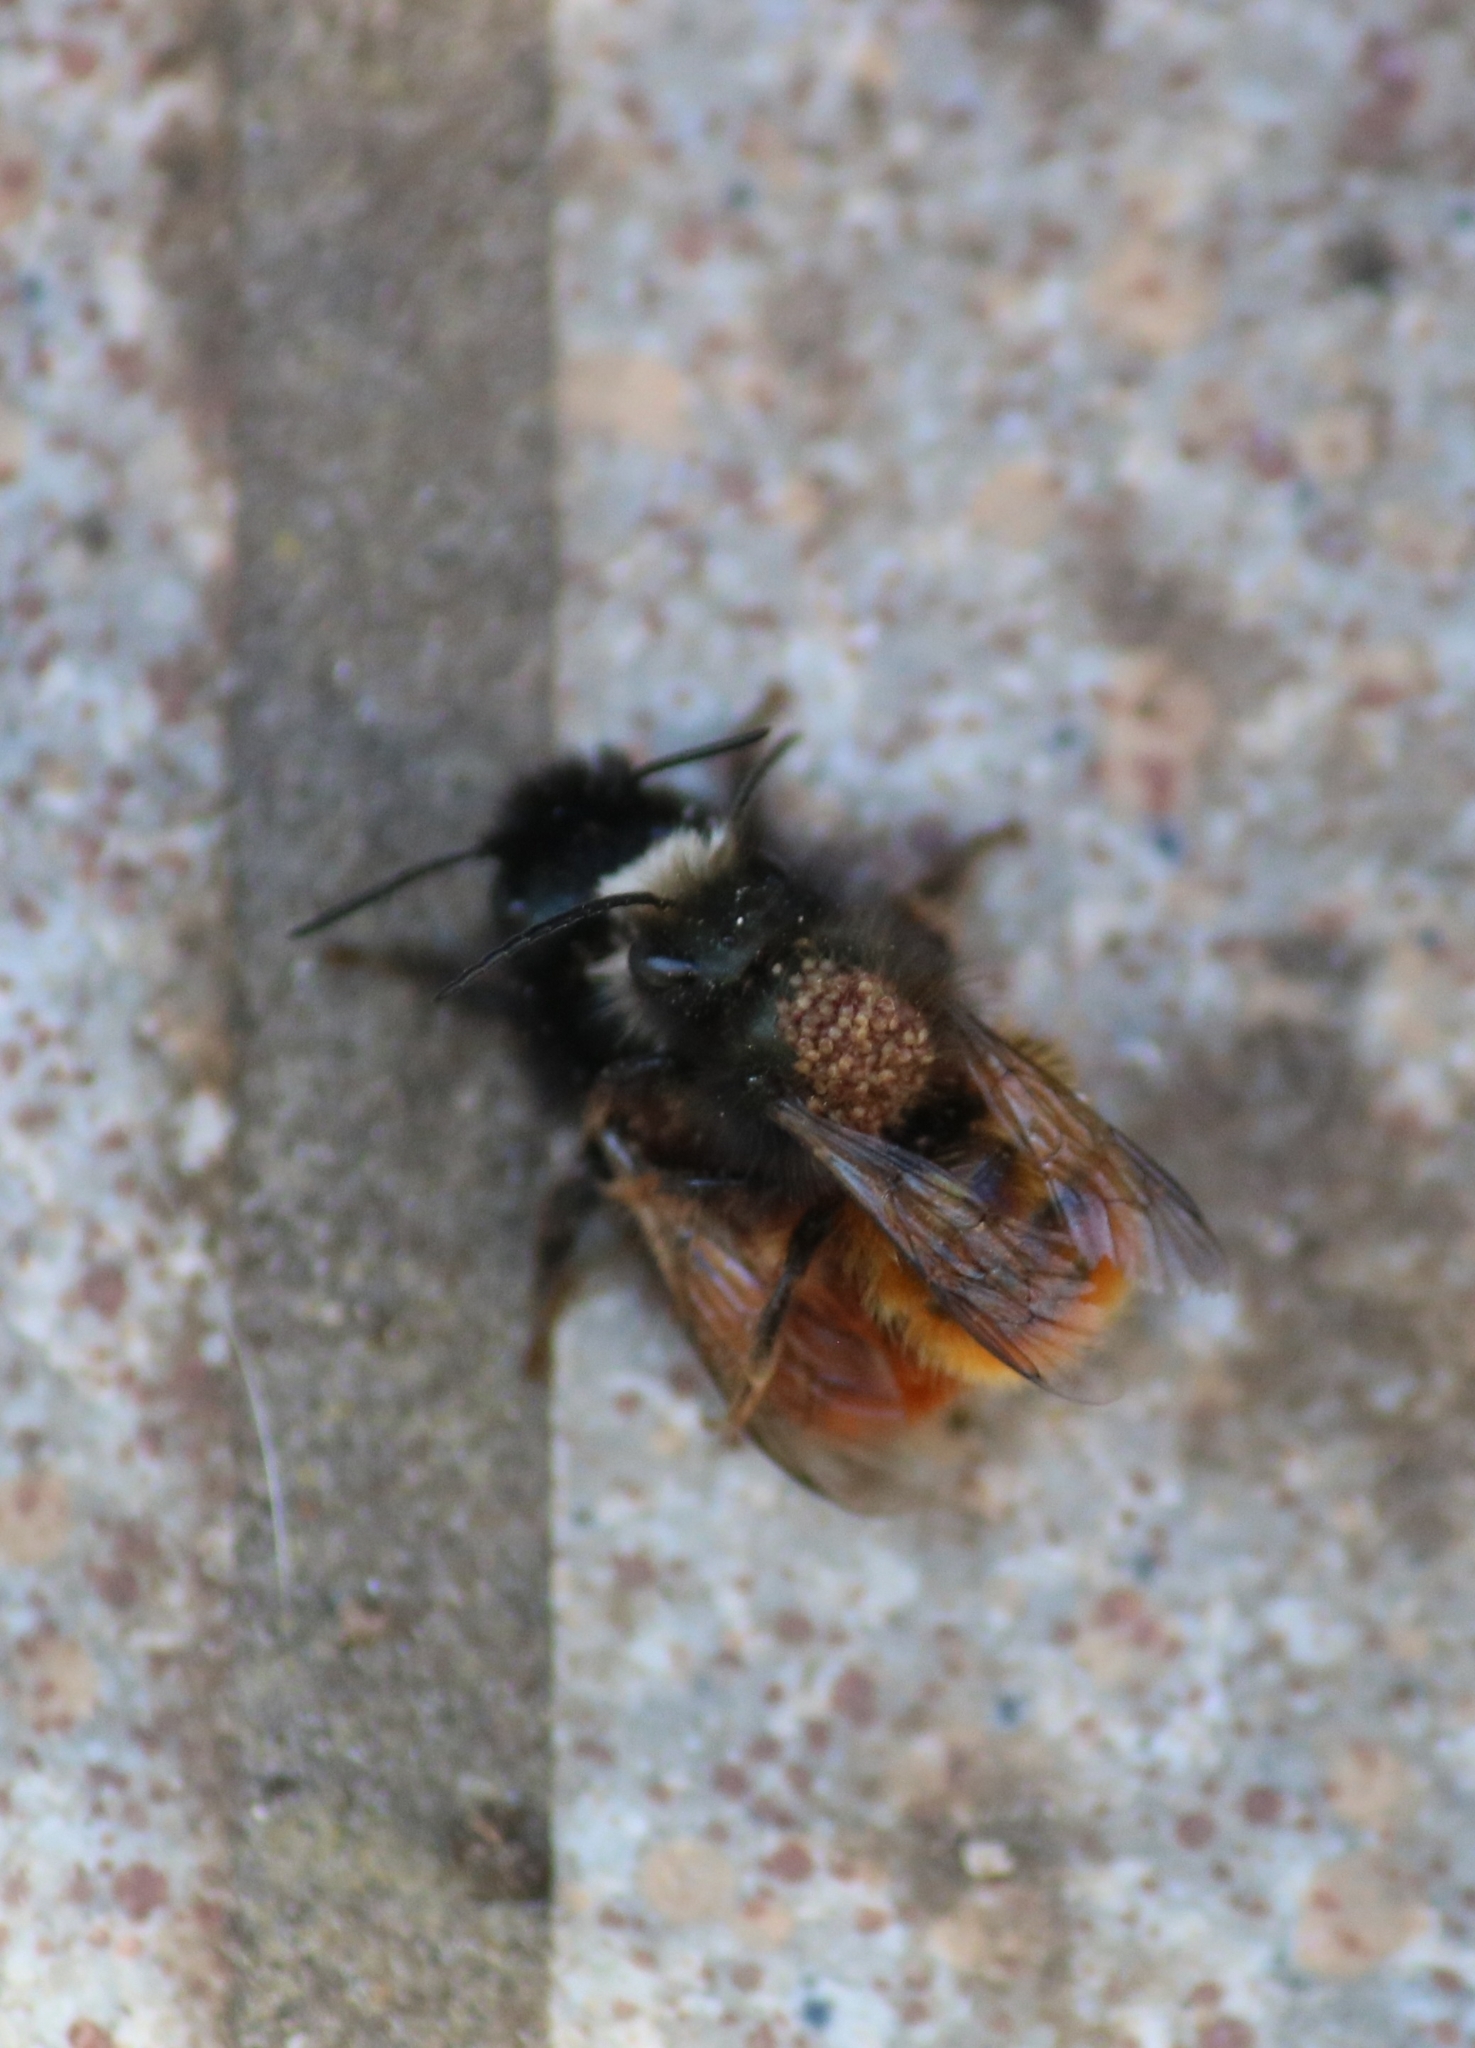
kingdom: Animalia
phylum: Arthropoda
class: Insecta
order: Hymenoptera
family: Megachilidae
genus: Osmia
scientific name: Osmia cornuta
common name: Mason bee
